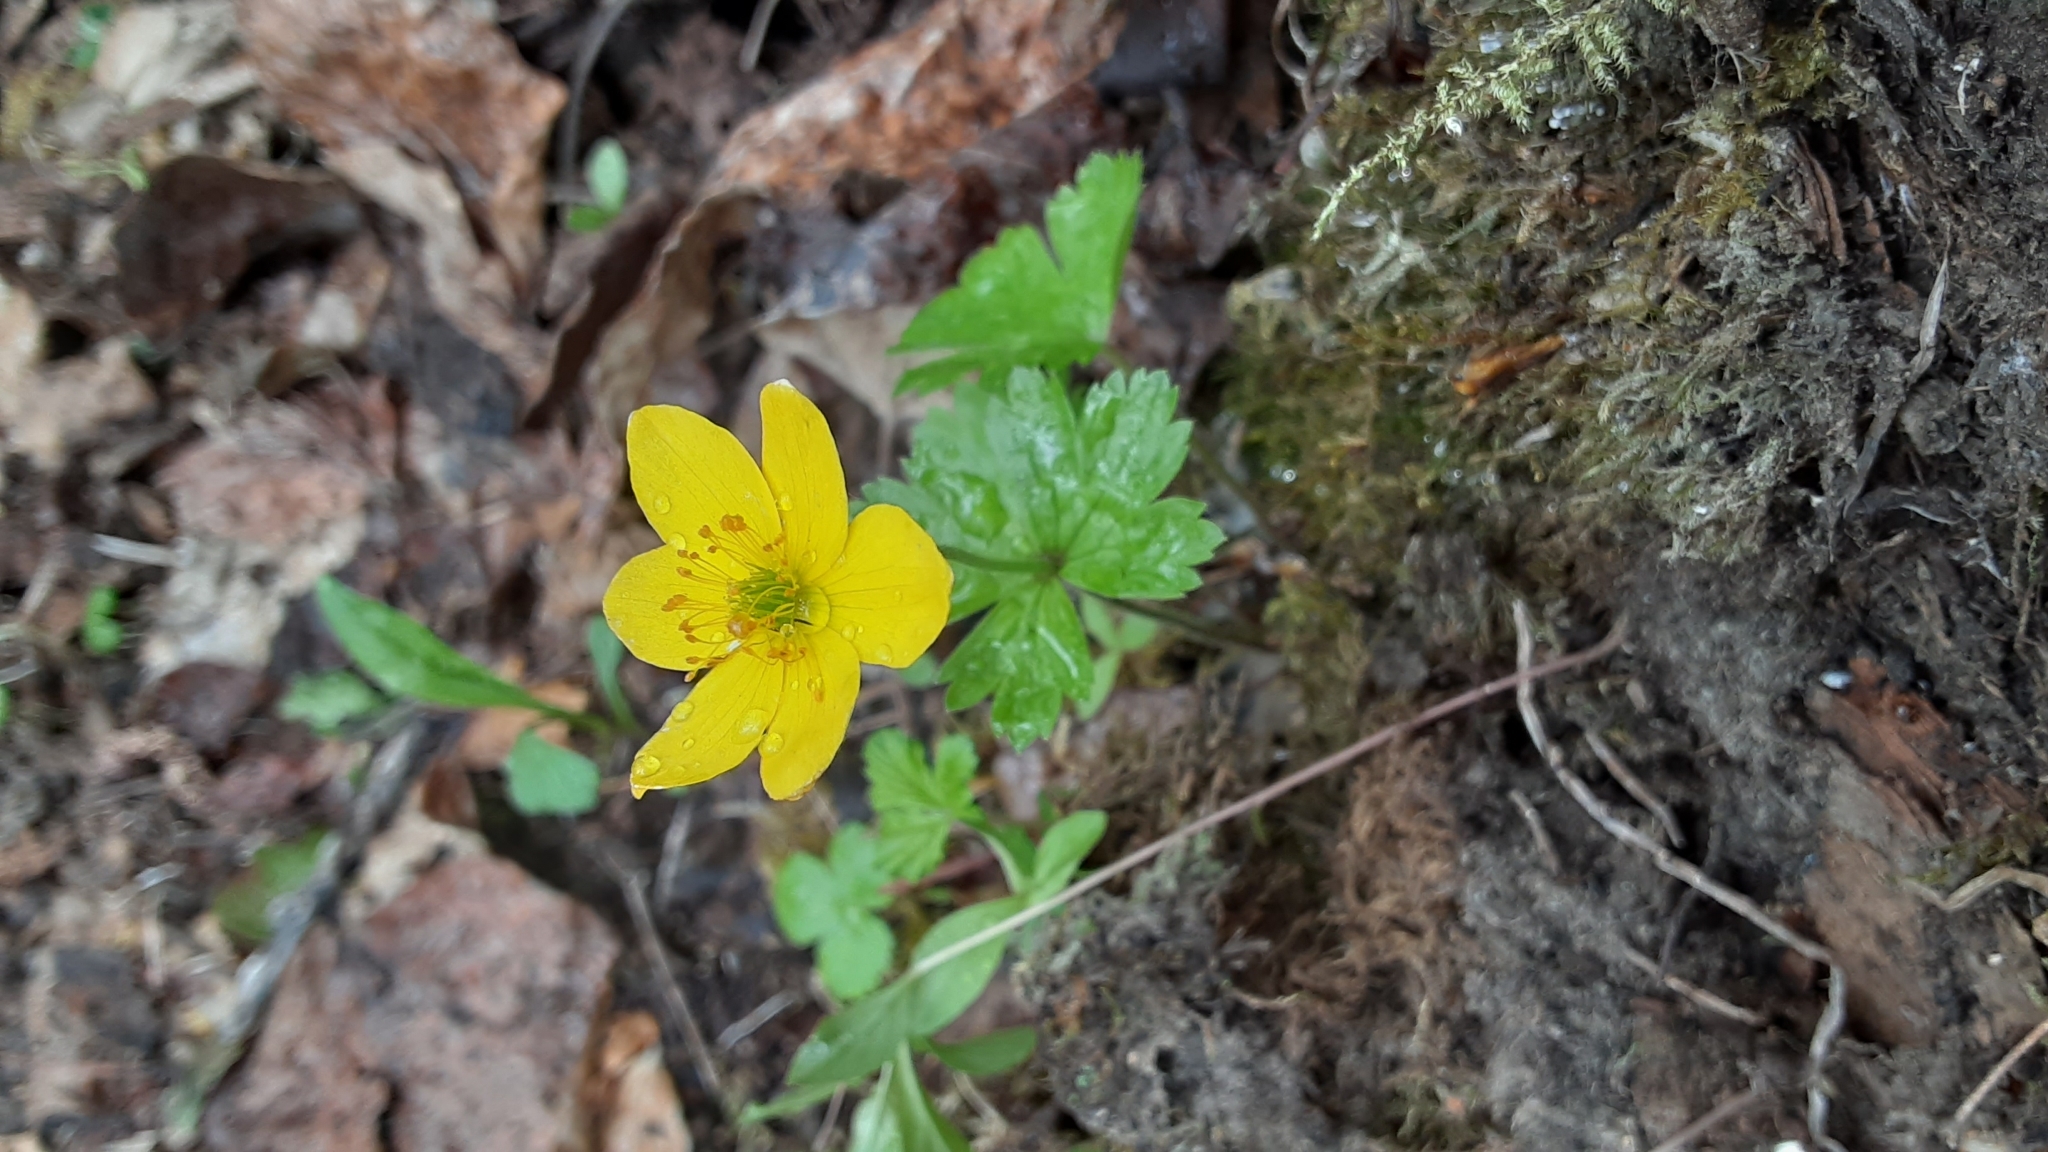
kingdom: Plantae
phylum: Tracheophyta
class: Magnoliopsida
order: Ranunculales
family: Ranunculaceae
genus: Anemonastrum
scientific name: Anemonastrum richardsonii
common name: Richardson's anemone
